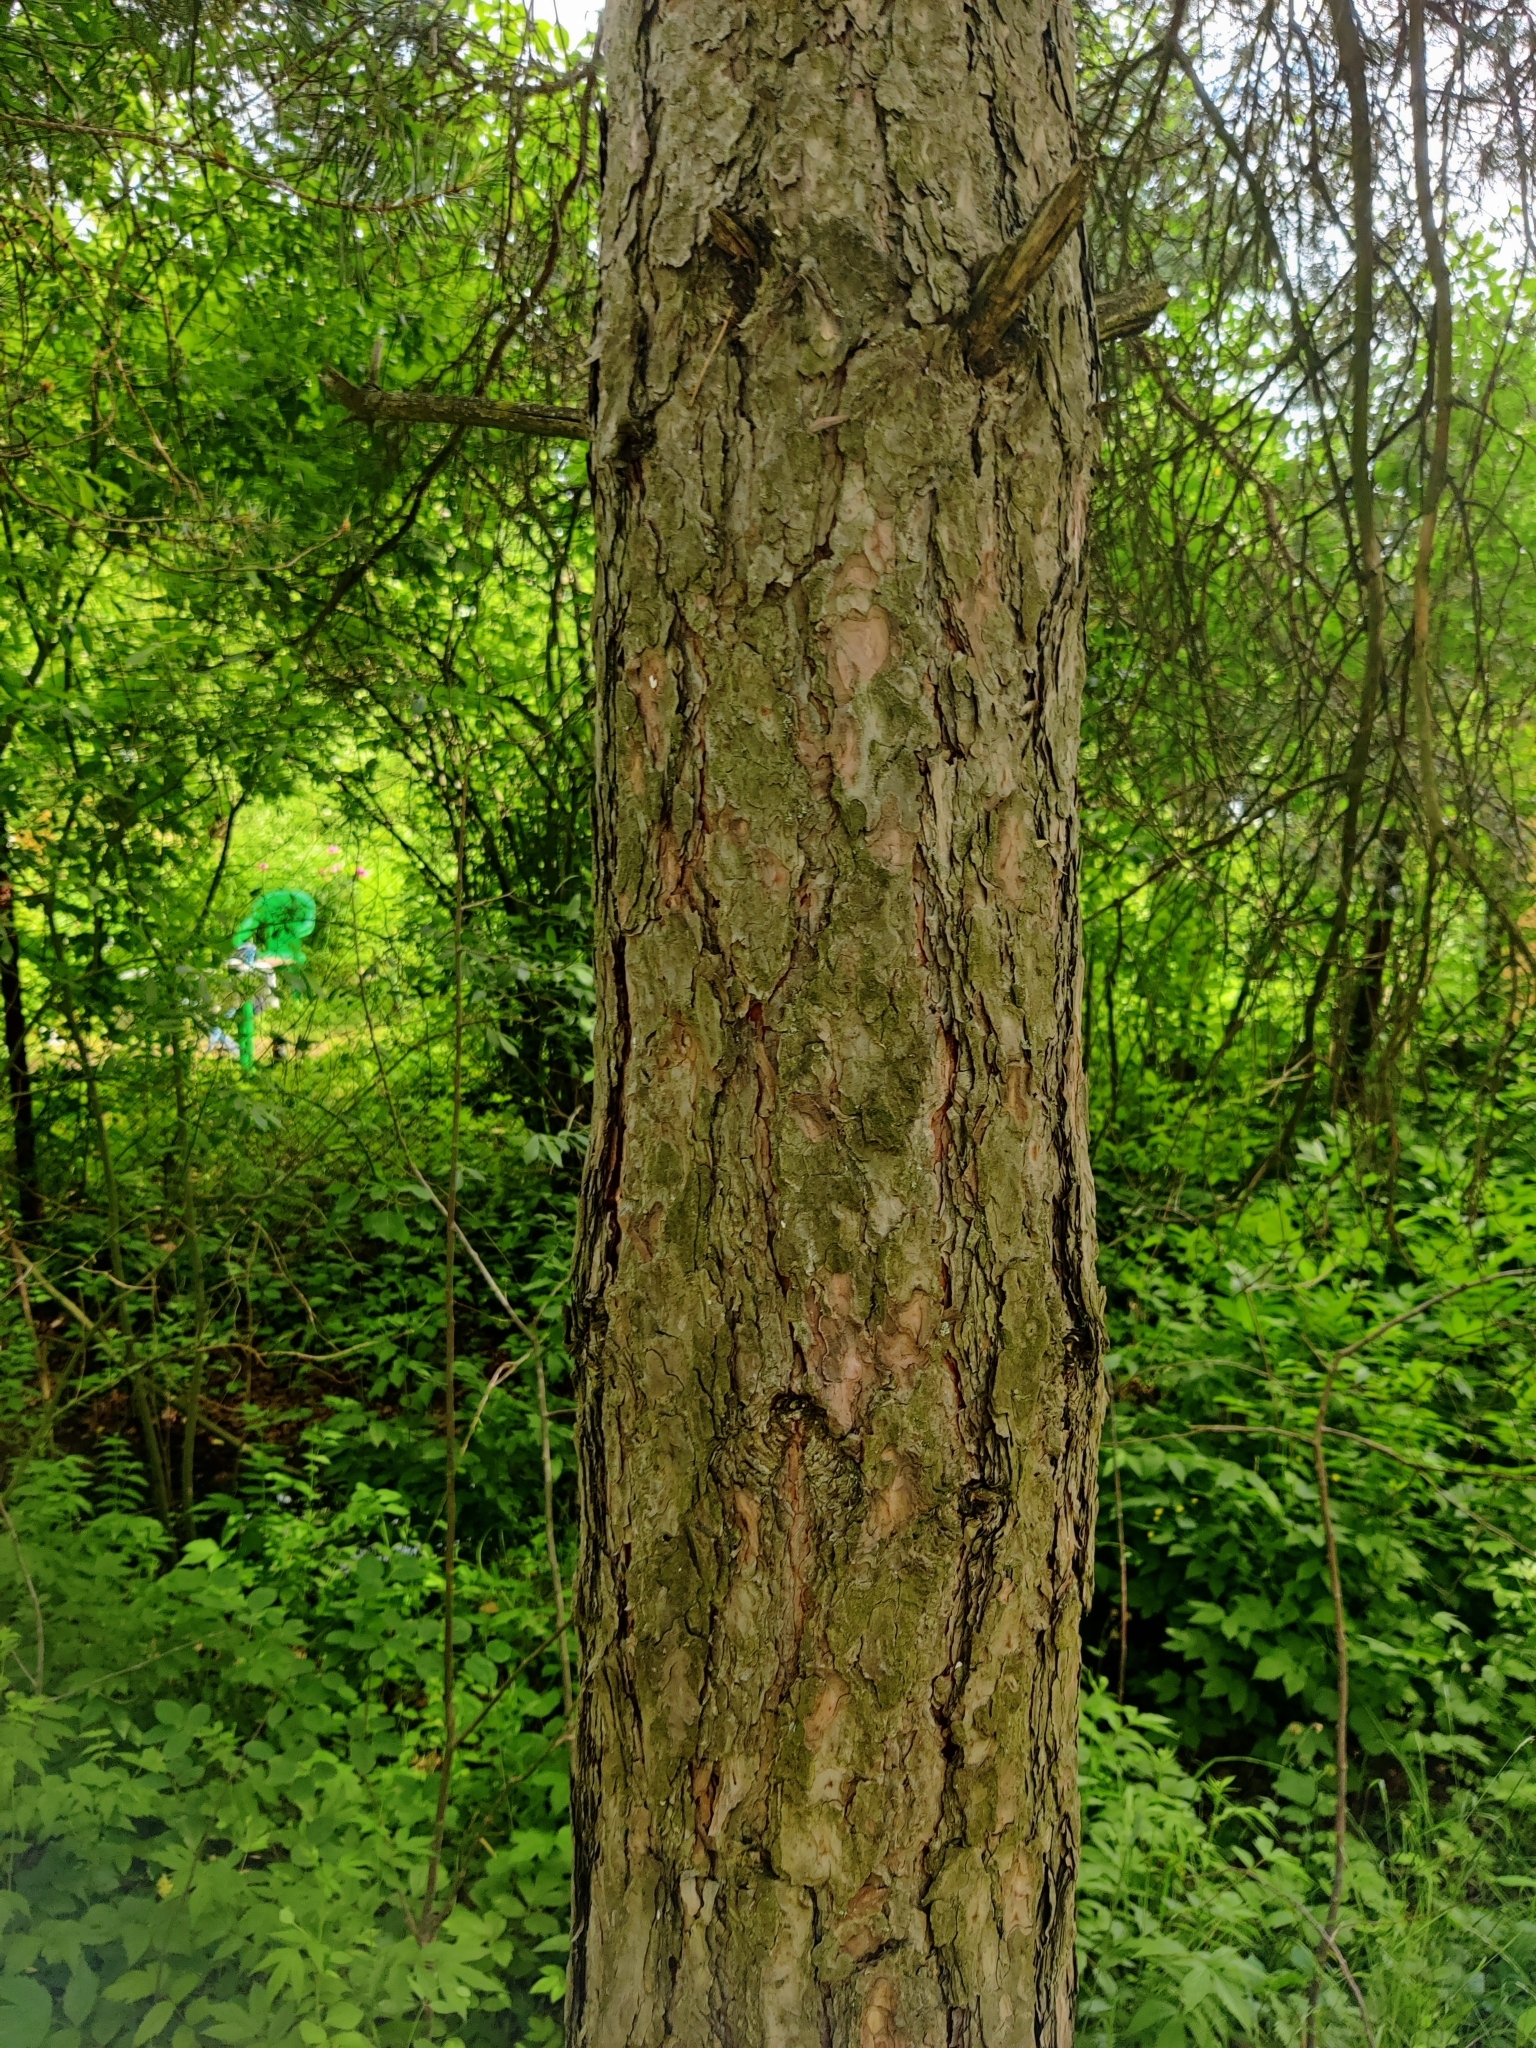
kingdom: Plantae
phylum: Tracheophyta
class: Pinopsida
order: Pinales
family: Pinaceae
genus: Pinus
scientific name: Pinus sylvestris
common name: Scots pine
